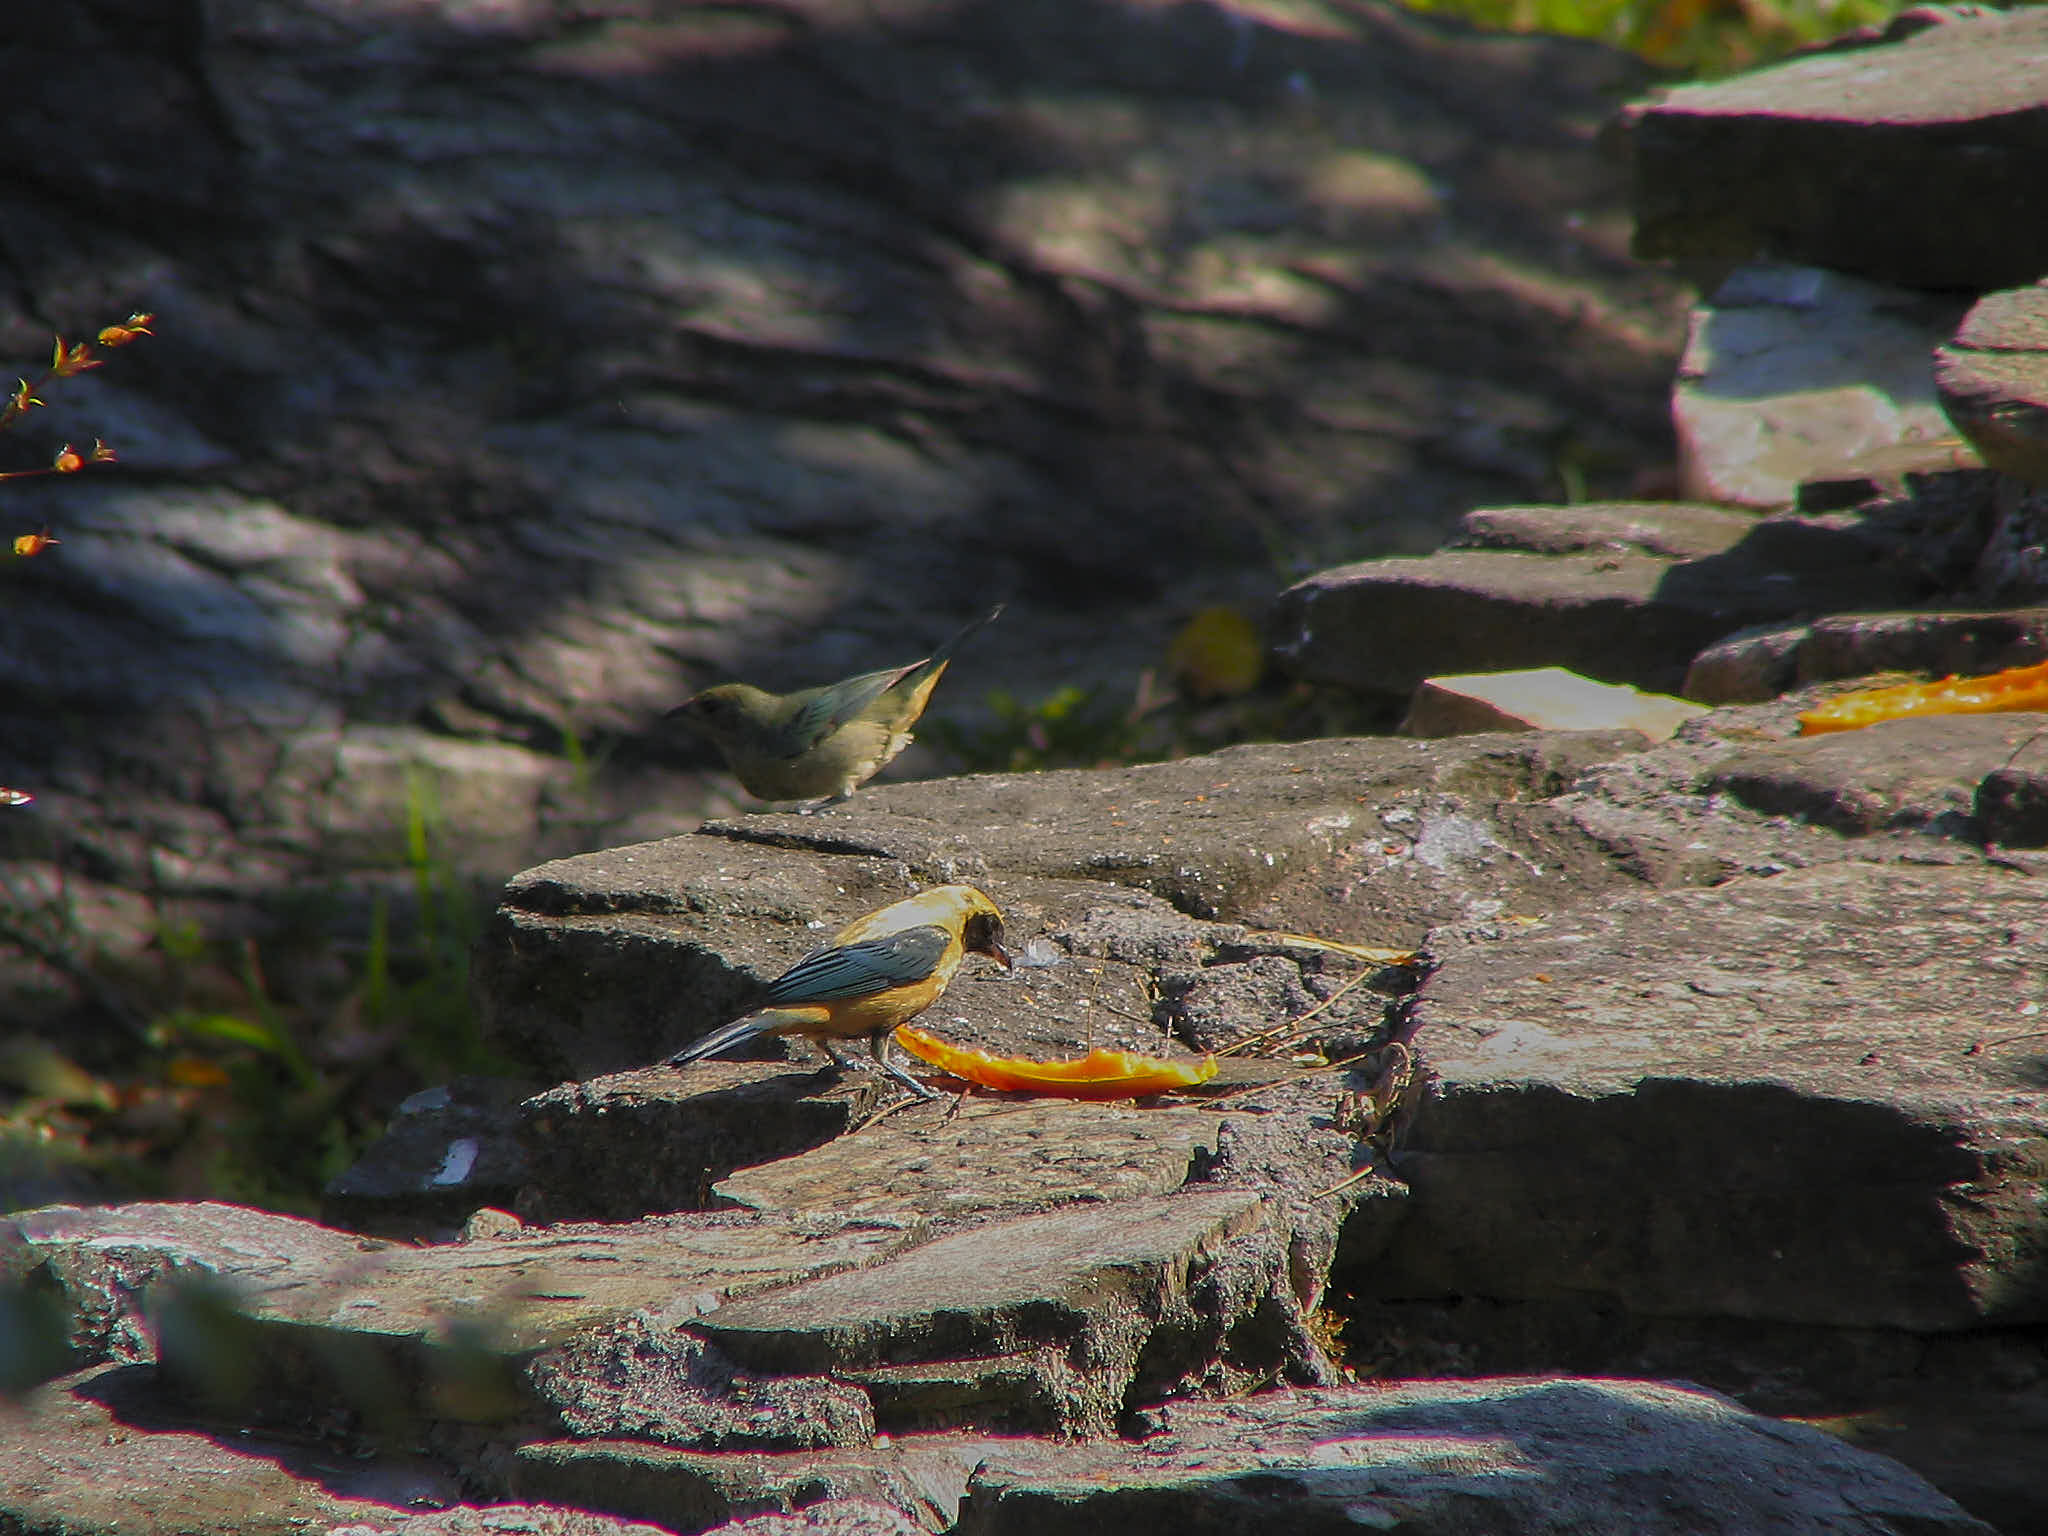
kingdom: Animalia
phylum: Chordata
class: Aves
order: Passeriformes
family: Thraupidae
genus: Stilpnia
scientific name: Stilpnia cayana
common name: Burnished-buff tanager
